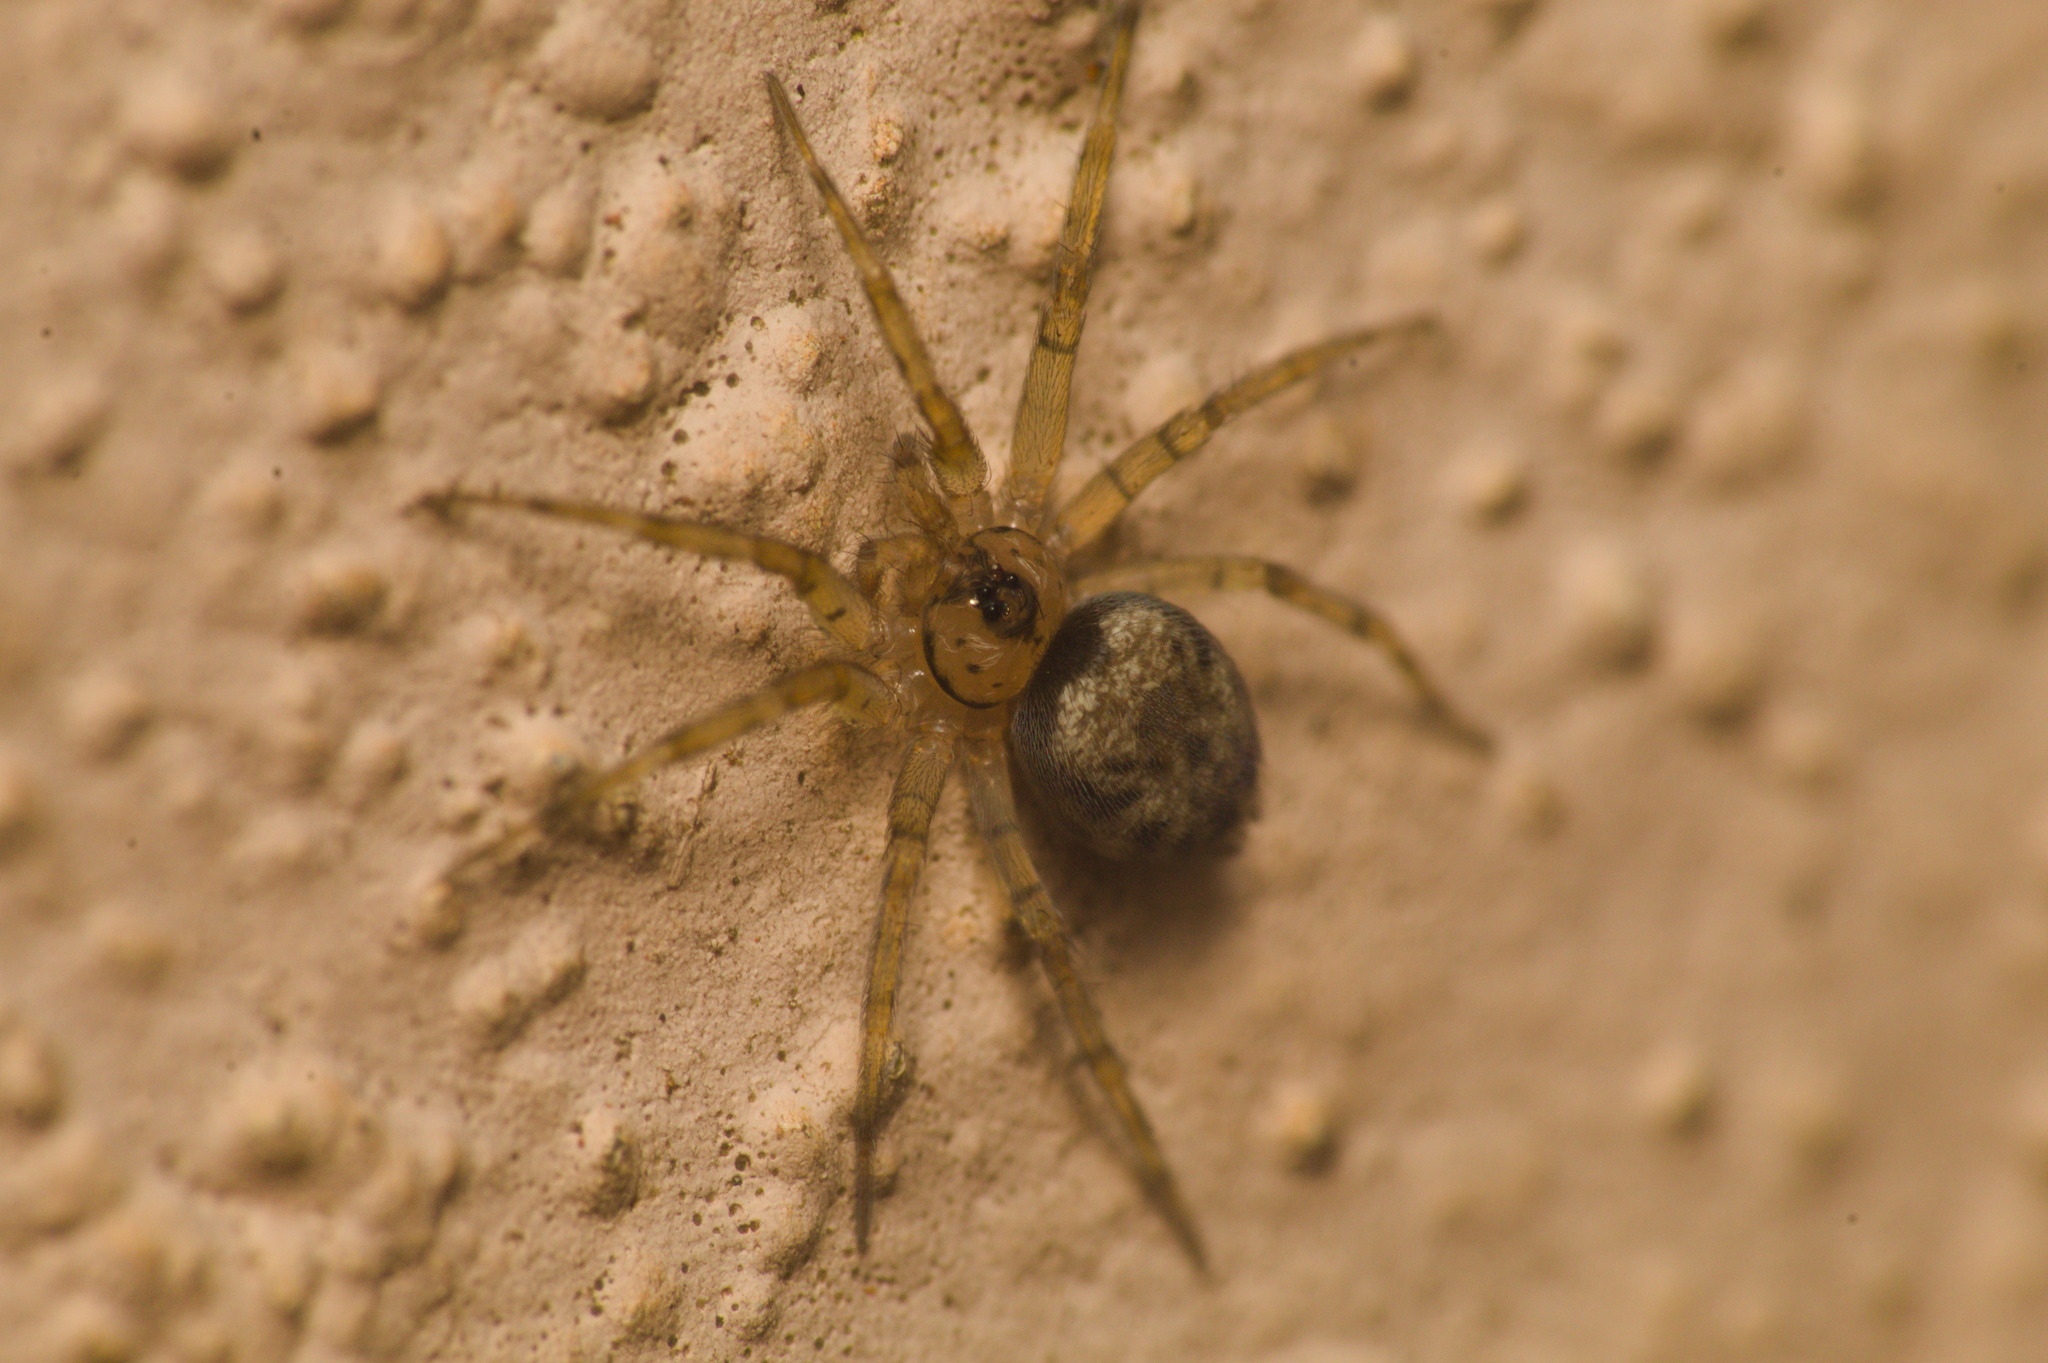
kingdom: Animalia
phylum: Arthropoda
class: Arachnida
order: Araneae
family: Oecobiidae
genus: Oecobius
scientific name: Oecobius navus
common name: Flatmesh weaver
